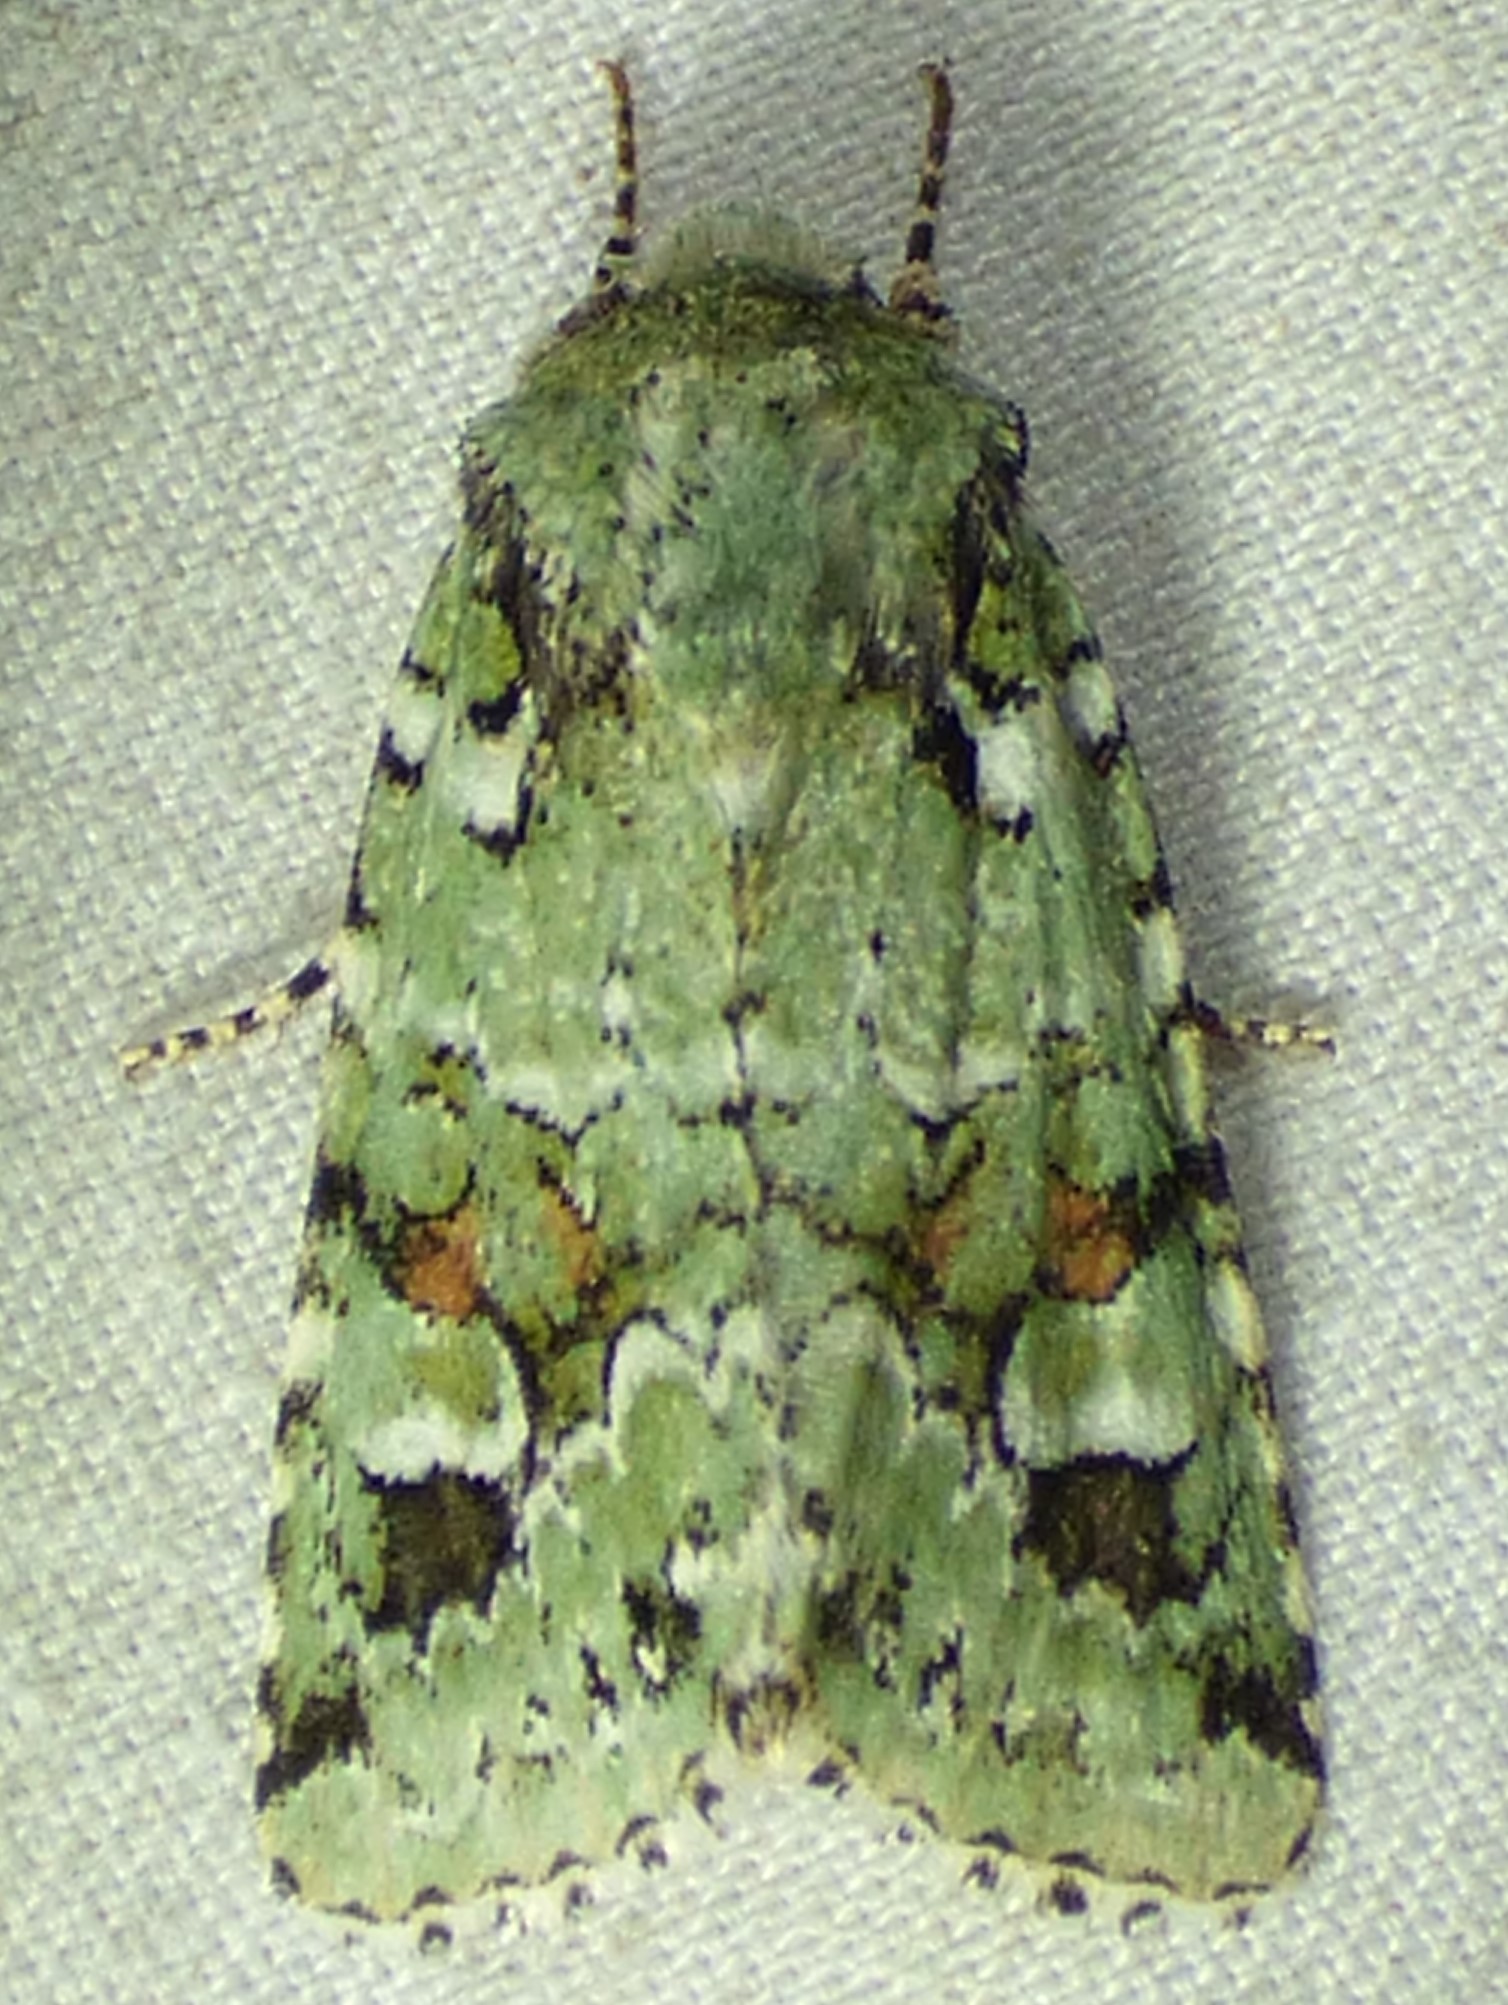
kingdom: Animalia
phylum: Arthropoda
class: Insecta
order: Lepidoptera
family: Noctuidae
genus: Lacinipolia
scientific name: Lacinipolia laudabilis
